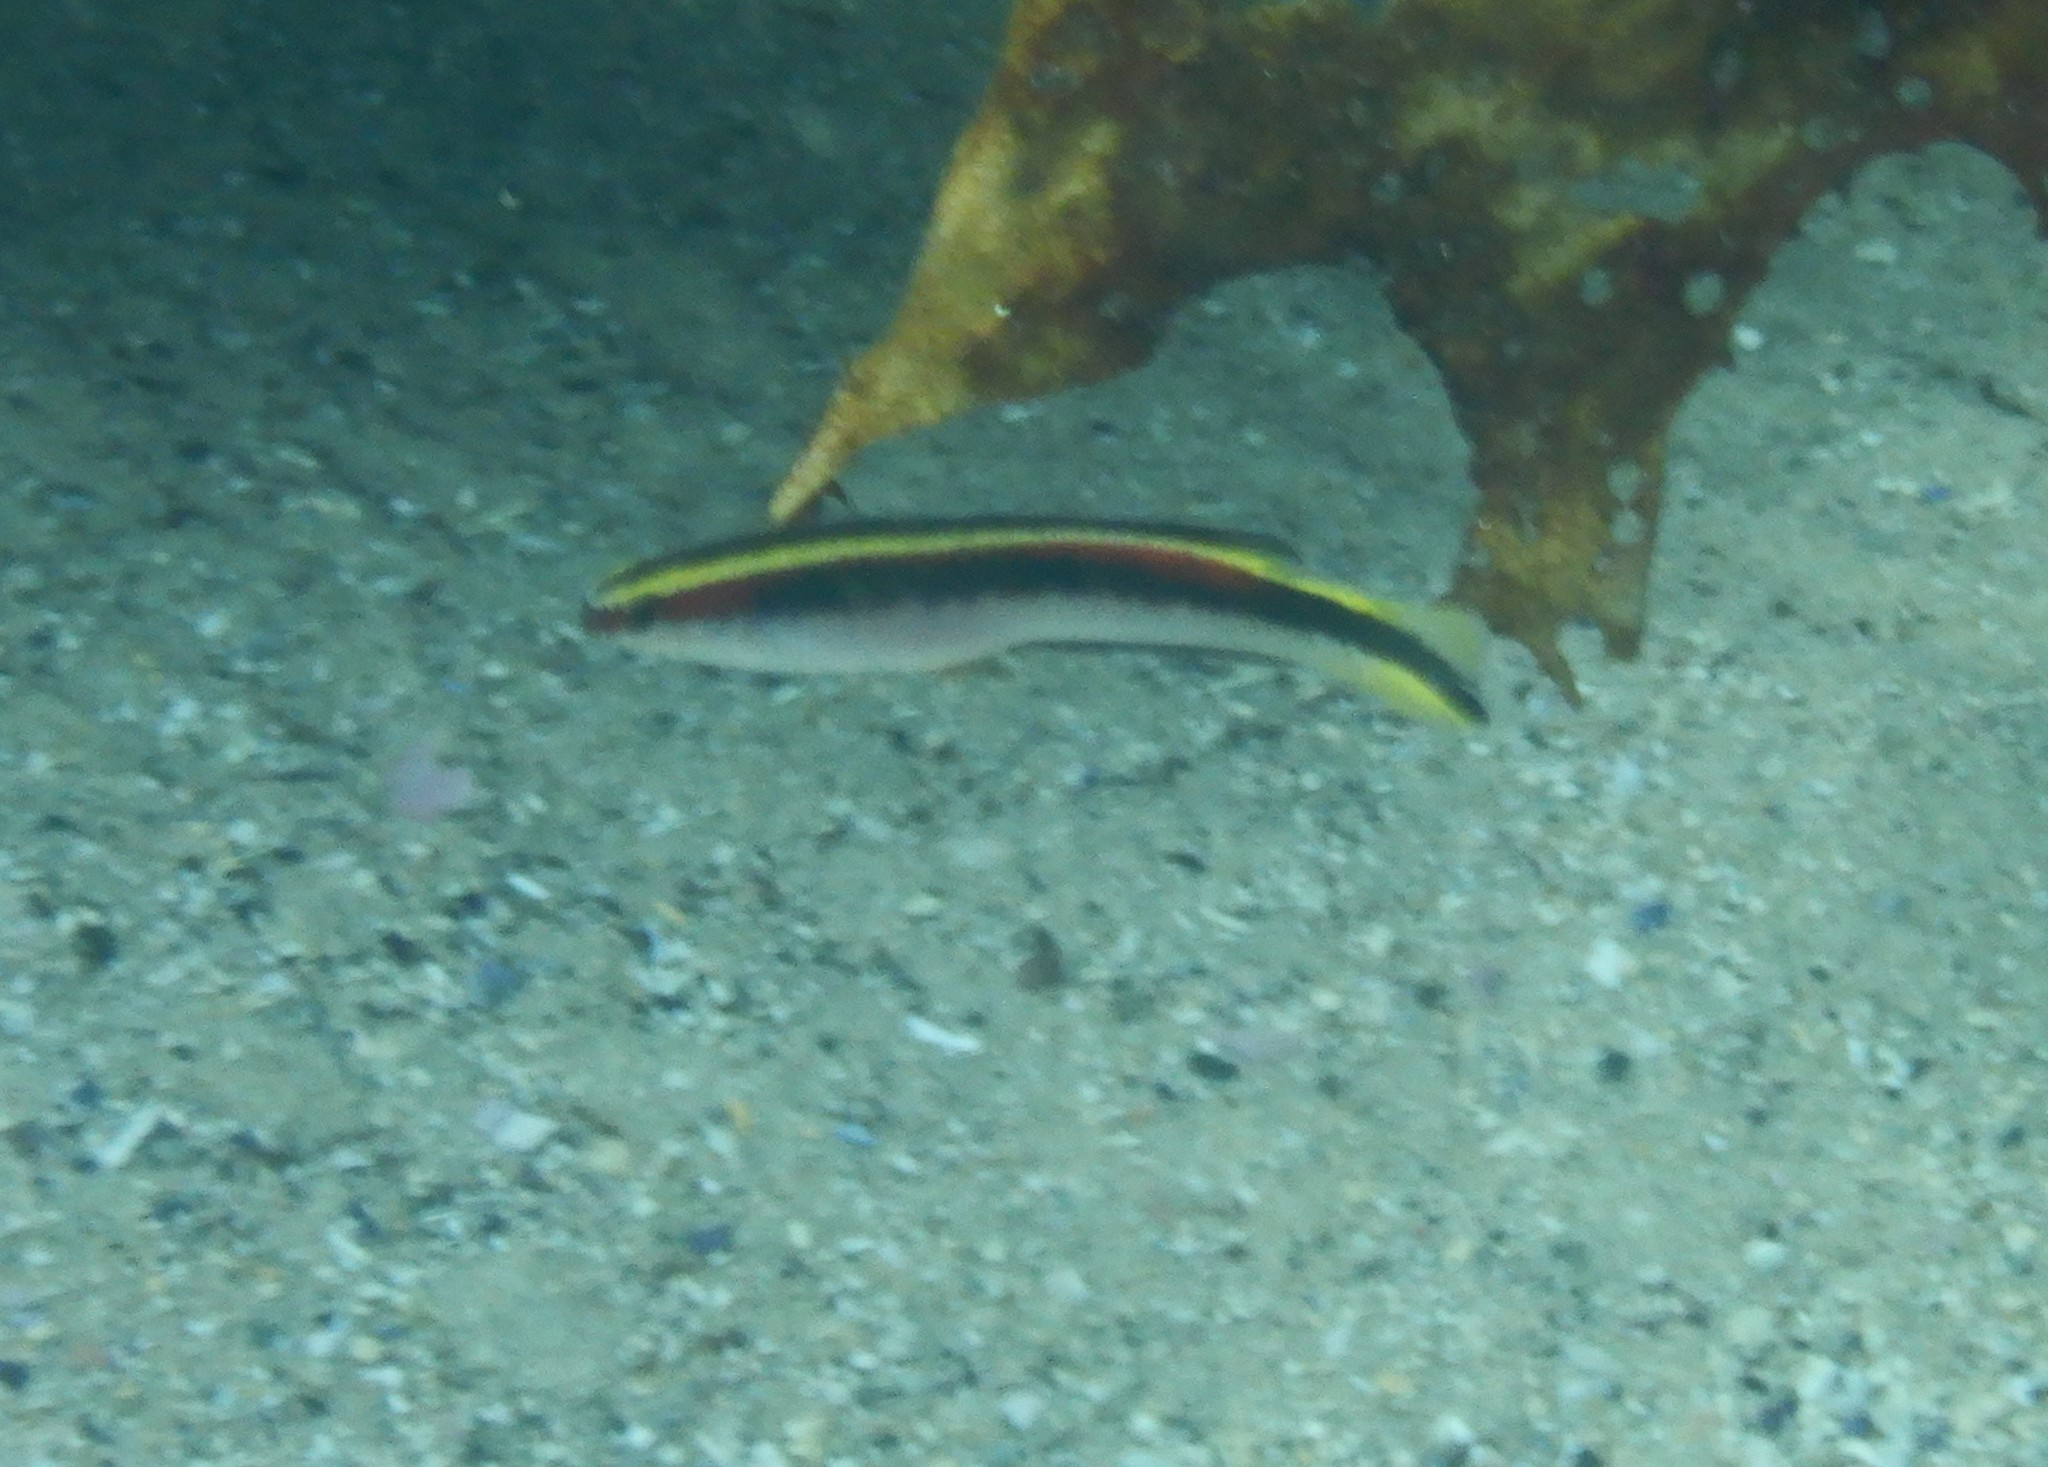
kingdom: Animalia
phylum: Chordata
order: Perciformes
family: Plesiopidae
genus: Trachinops
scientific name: Trachinops taeniatus
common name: Eastern hulafish
